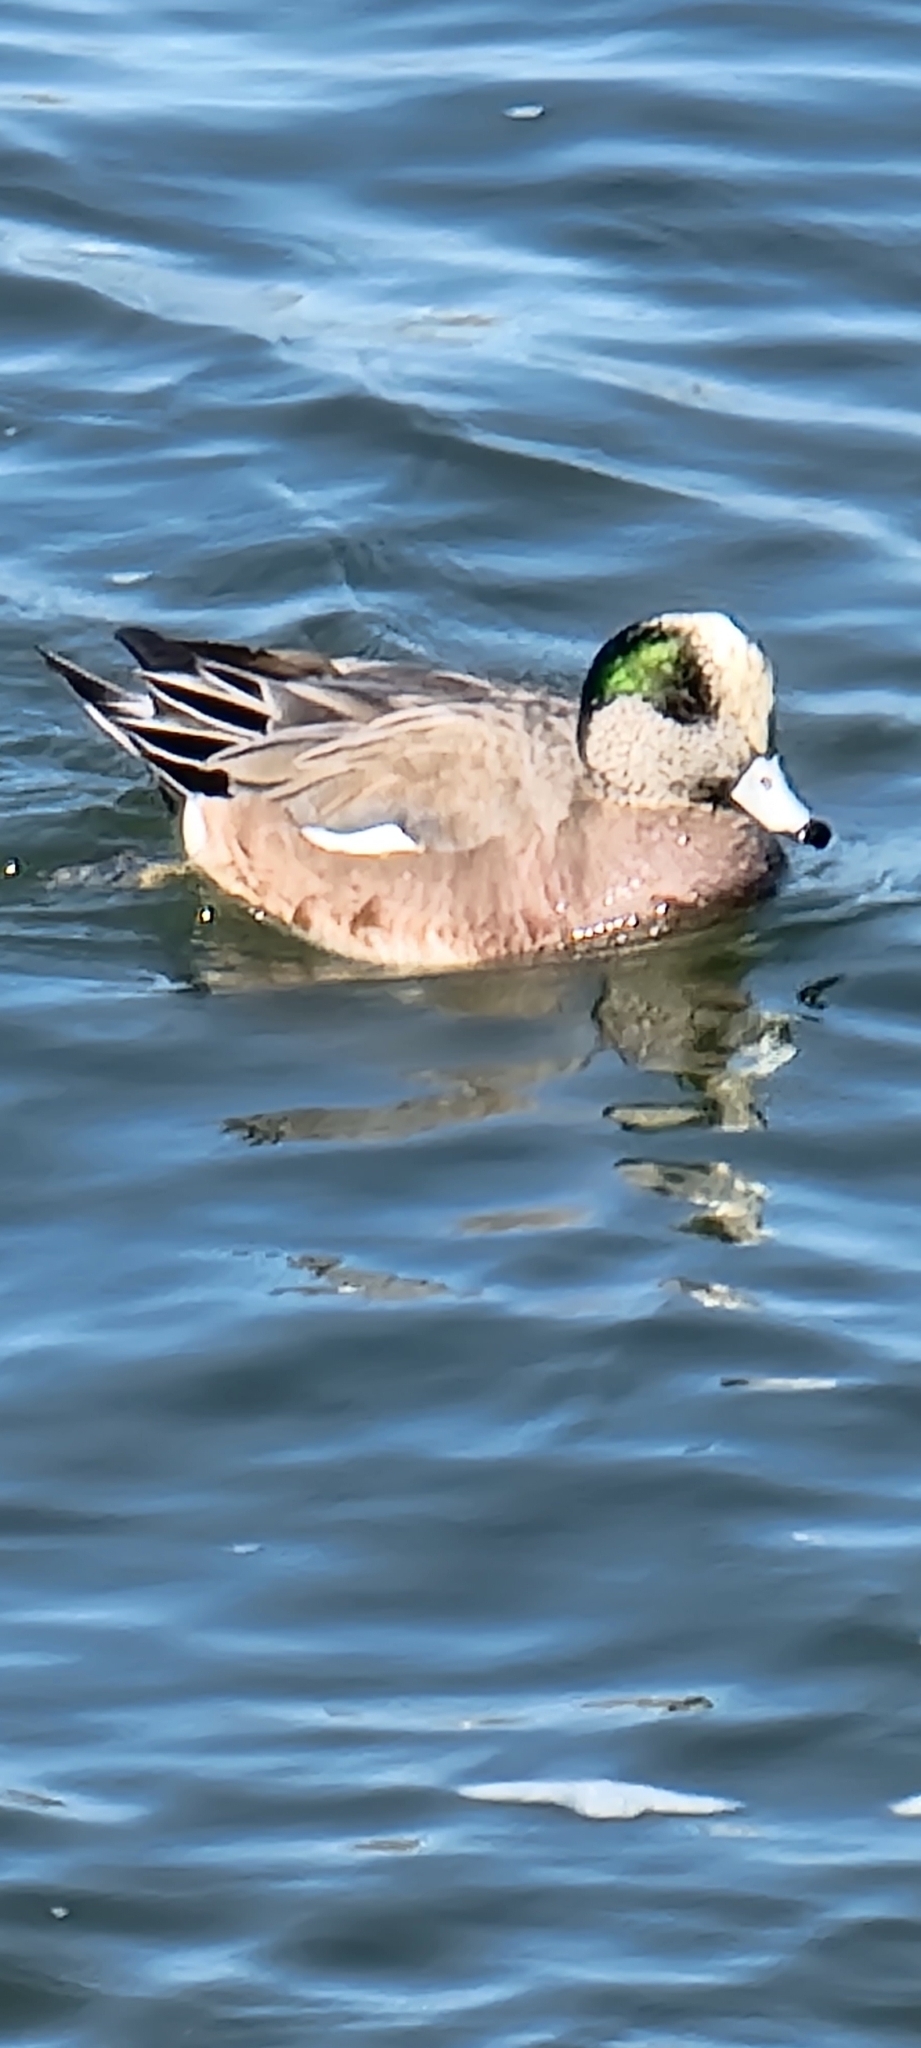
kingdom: Animalia
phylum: Chordata
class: Aves
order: Anseriformes
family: Anatidae
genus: Mareca
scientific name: Mareca americana
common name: American wigeon
